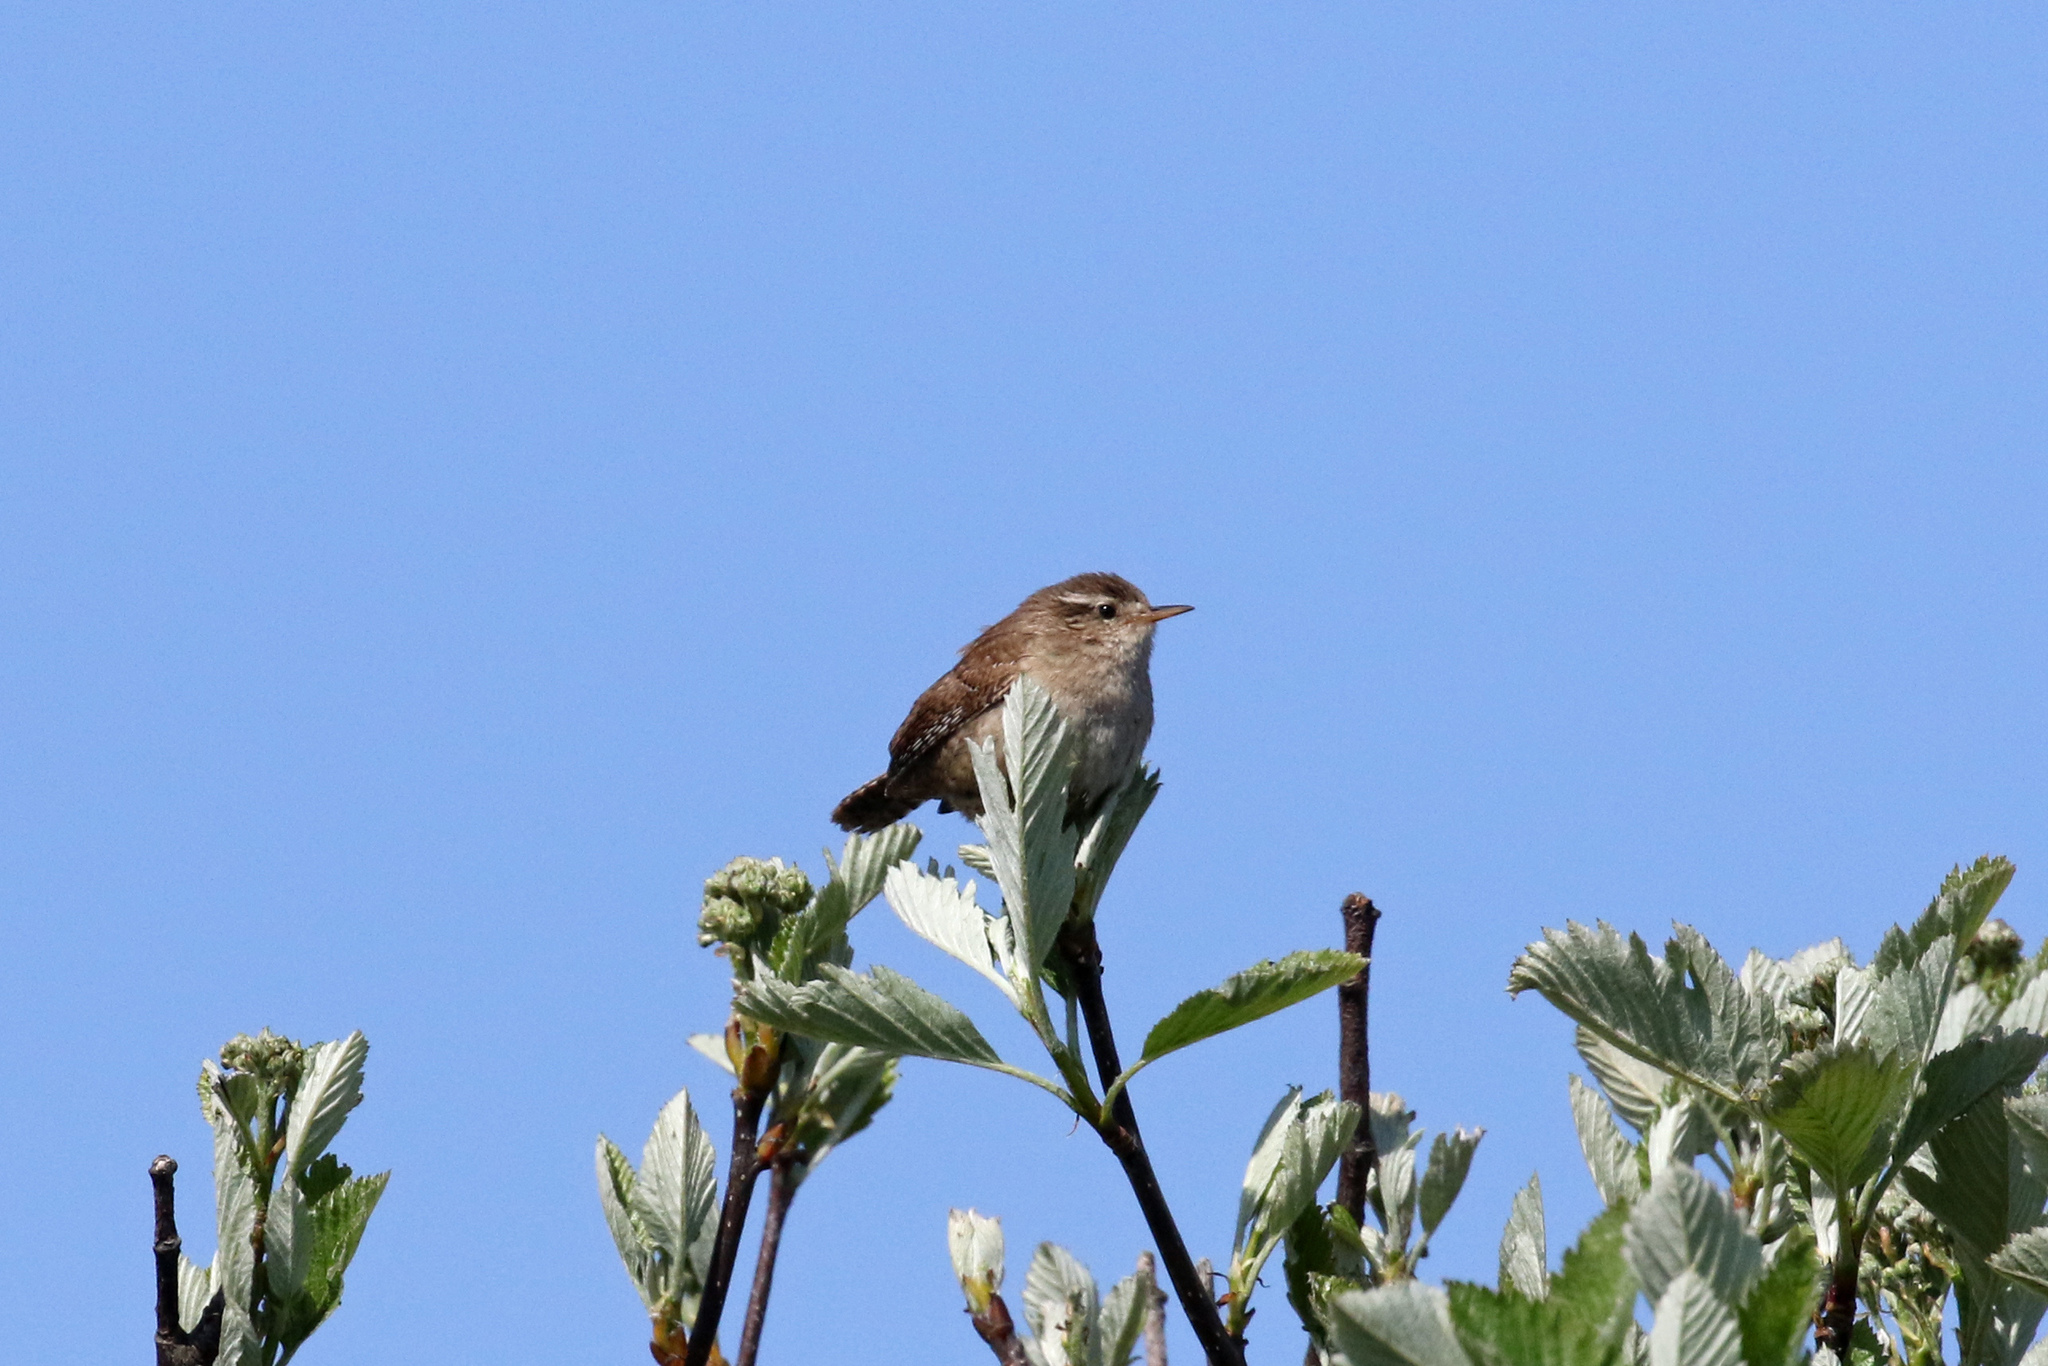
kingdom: Animalia
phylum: Chordata
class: Aves
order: Passeriformes
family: Troglodytidae
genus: Troglodytes
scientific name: Troglodytes troglodytes
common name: Eurasian wren
